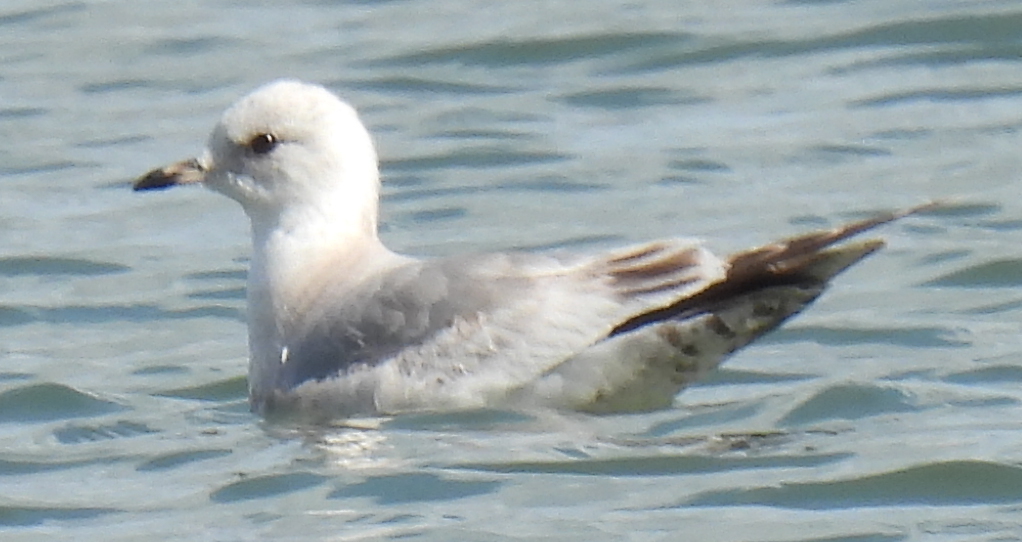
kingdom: Animalia
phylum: Chordata
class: Aves
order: Charadriiformes
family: Laridae
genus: Larus
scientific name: Larus brachyrhynchus
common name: Short-billed gull
